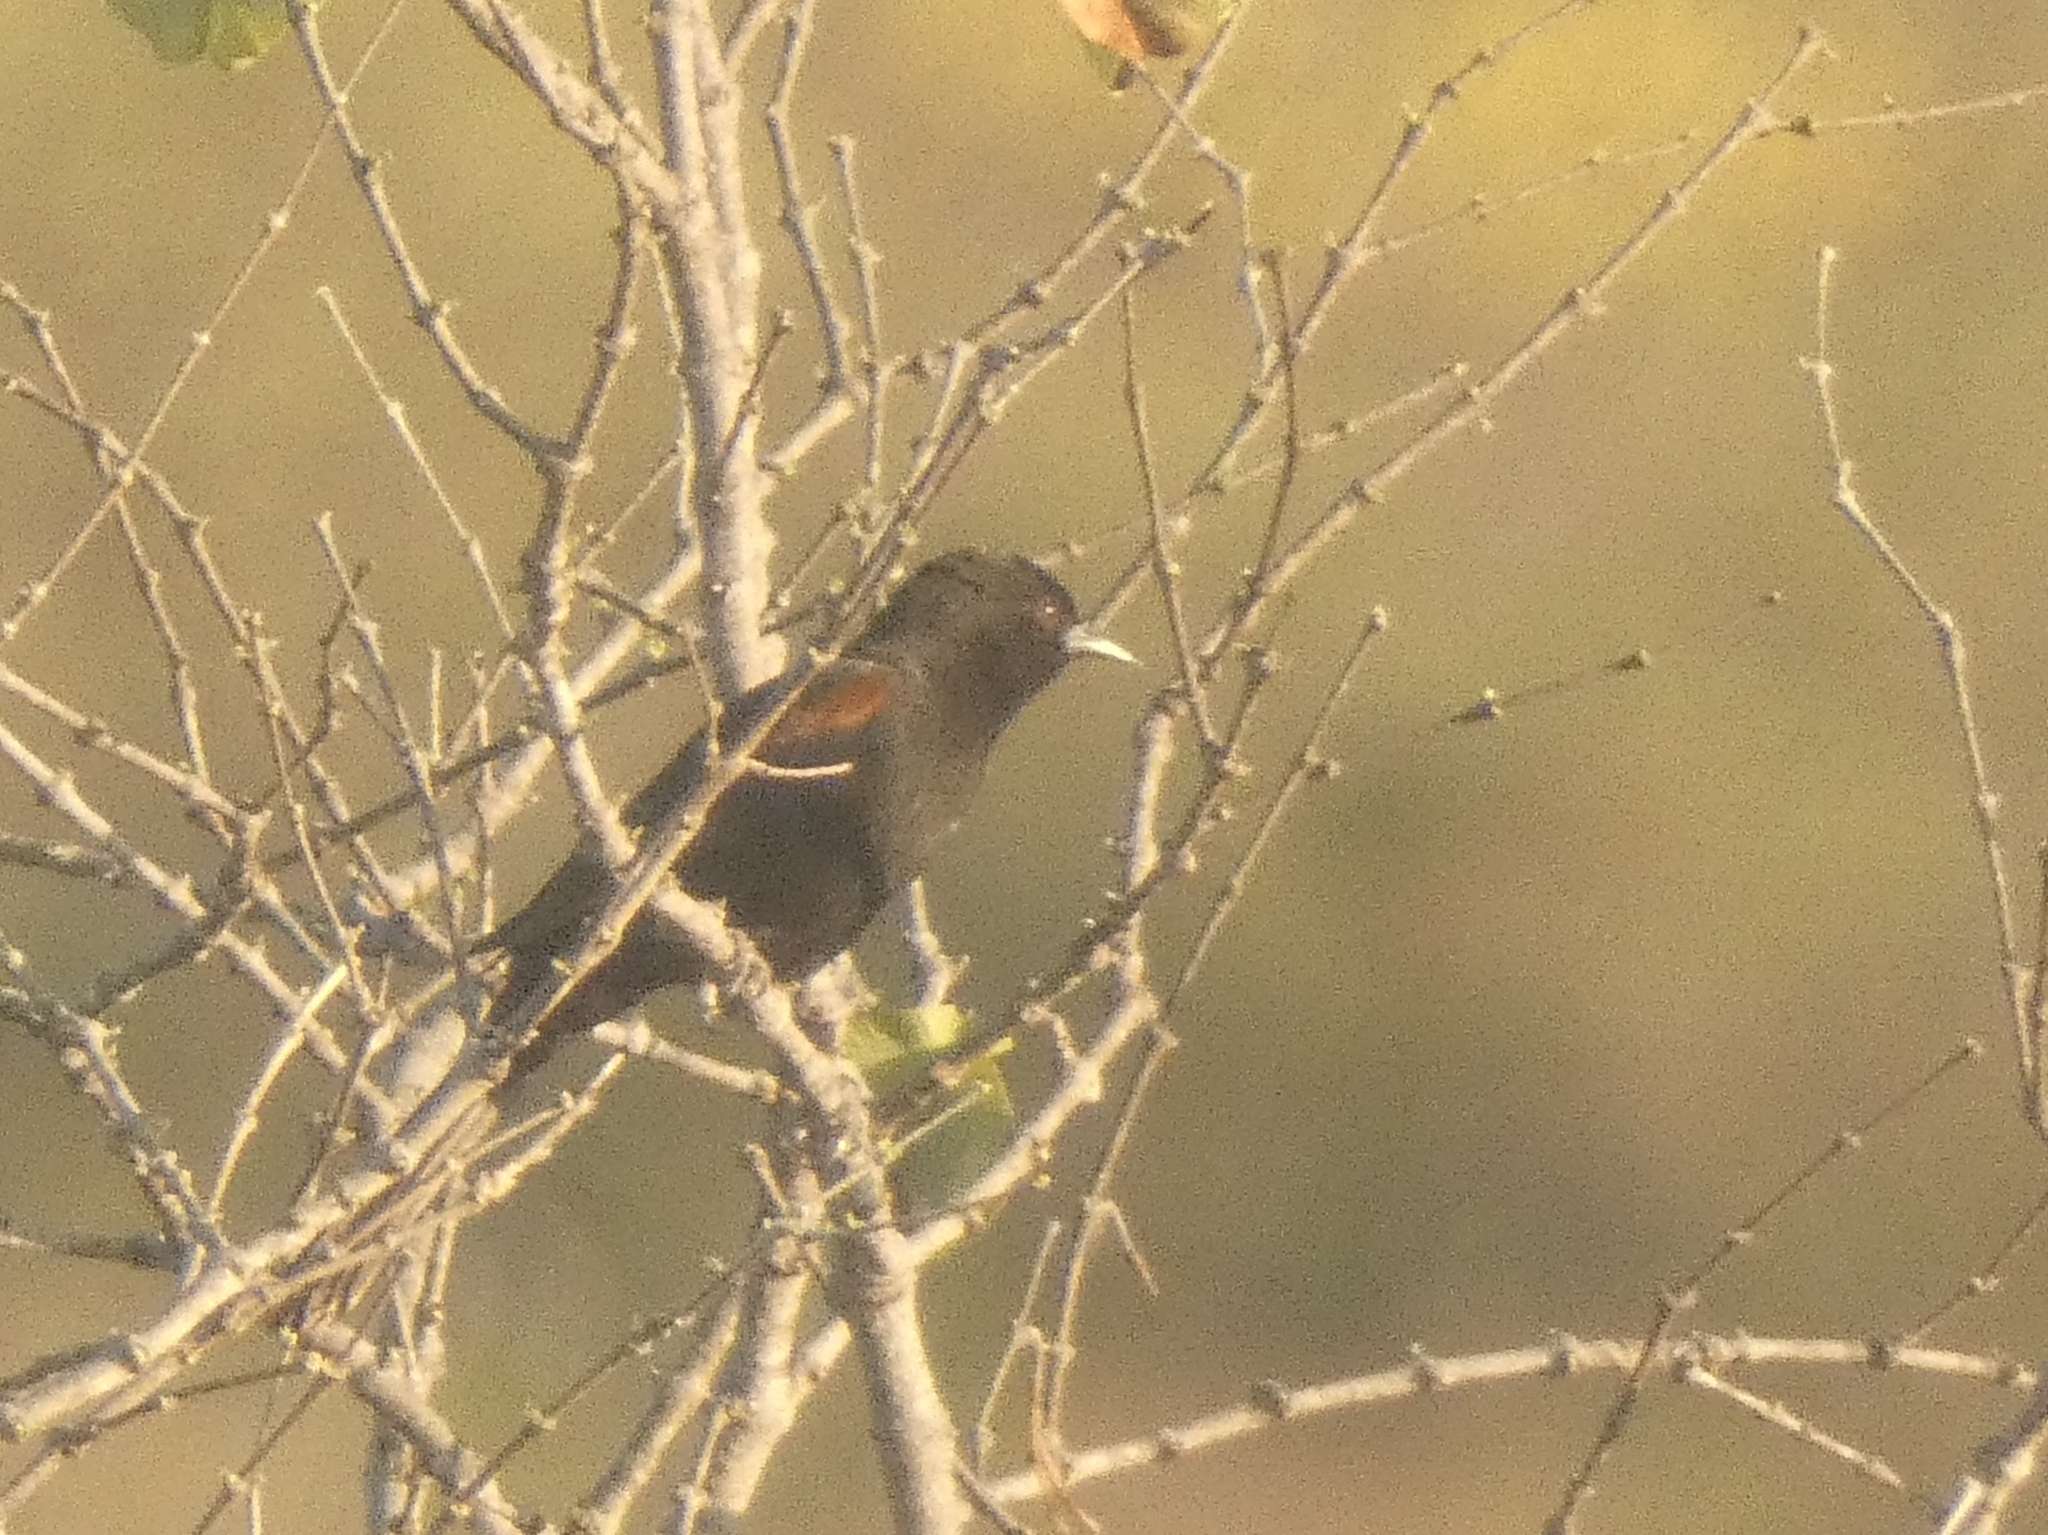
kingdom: Animalia
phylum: Chordata
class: Aves
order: Passeriformes
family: Icteridae
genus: Icterus
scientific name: Icterus cayanensis
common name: Epaulet oriole
